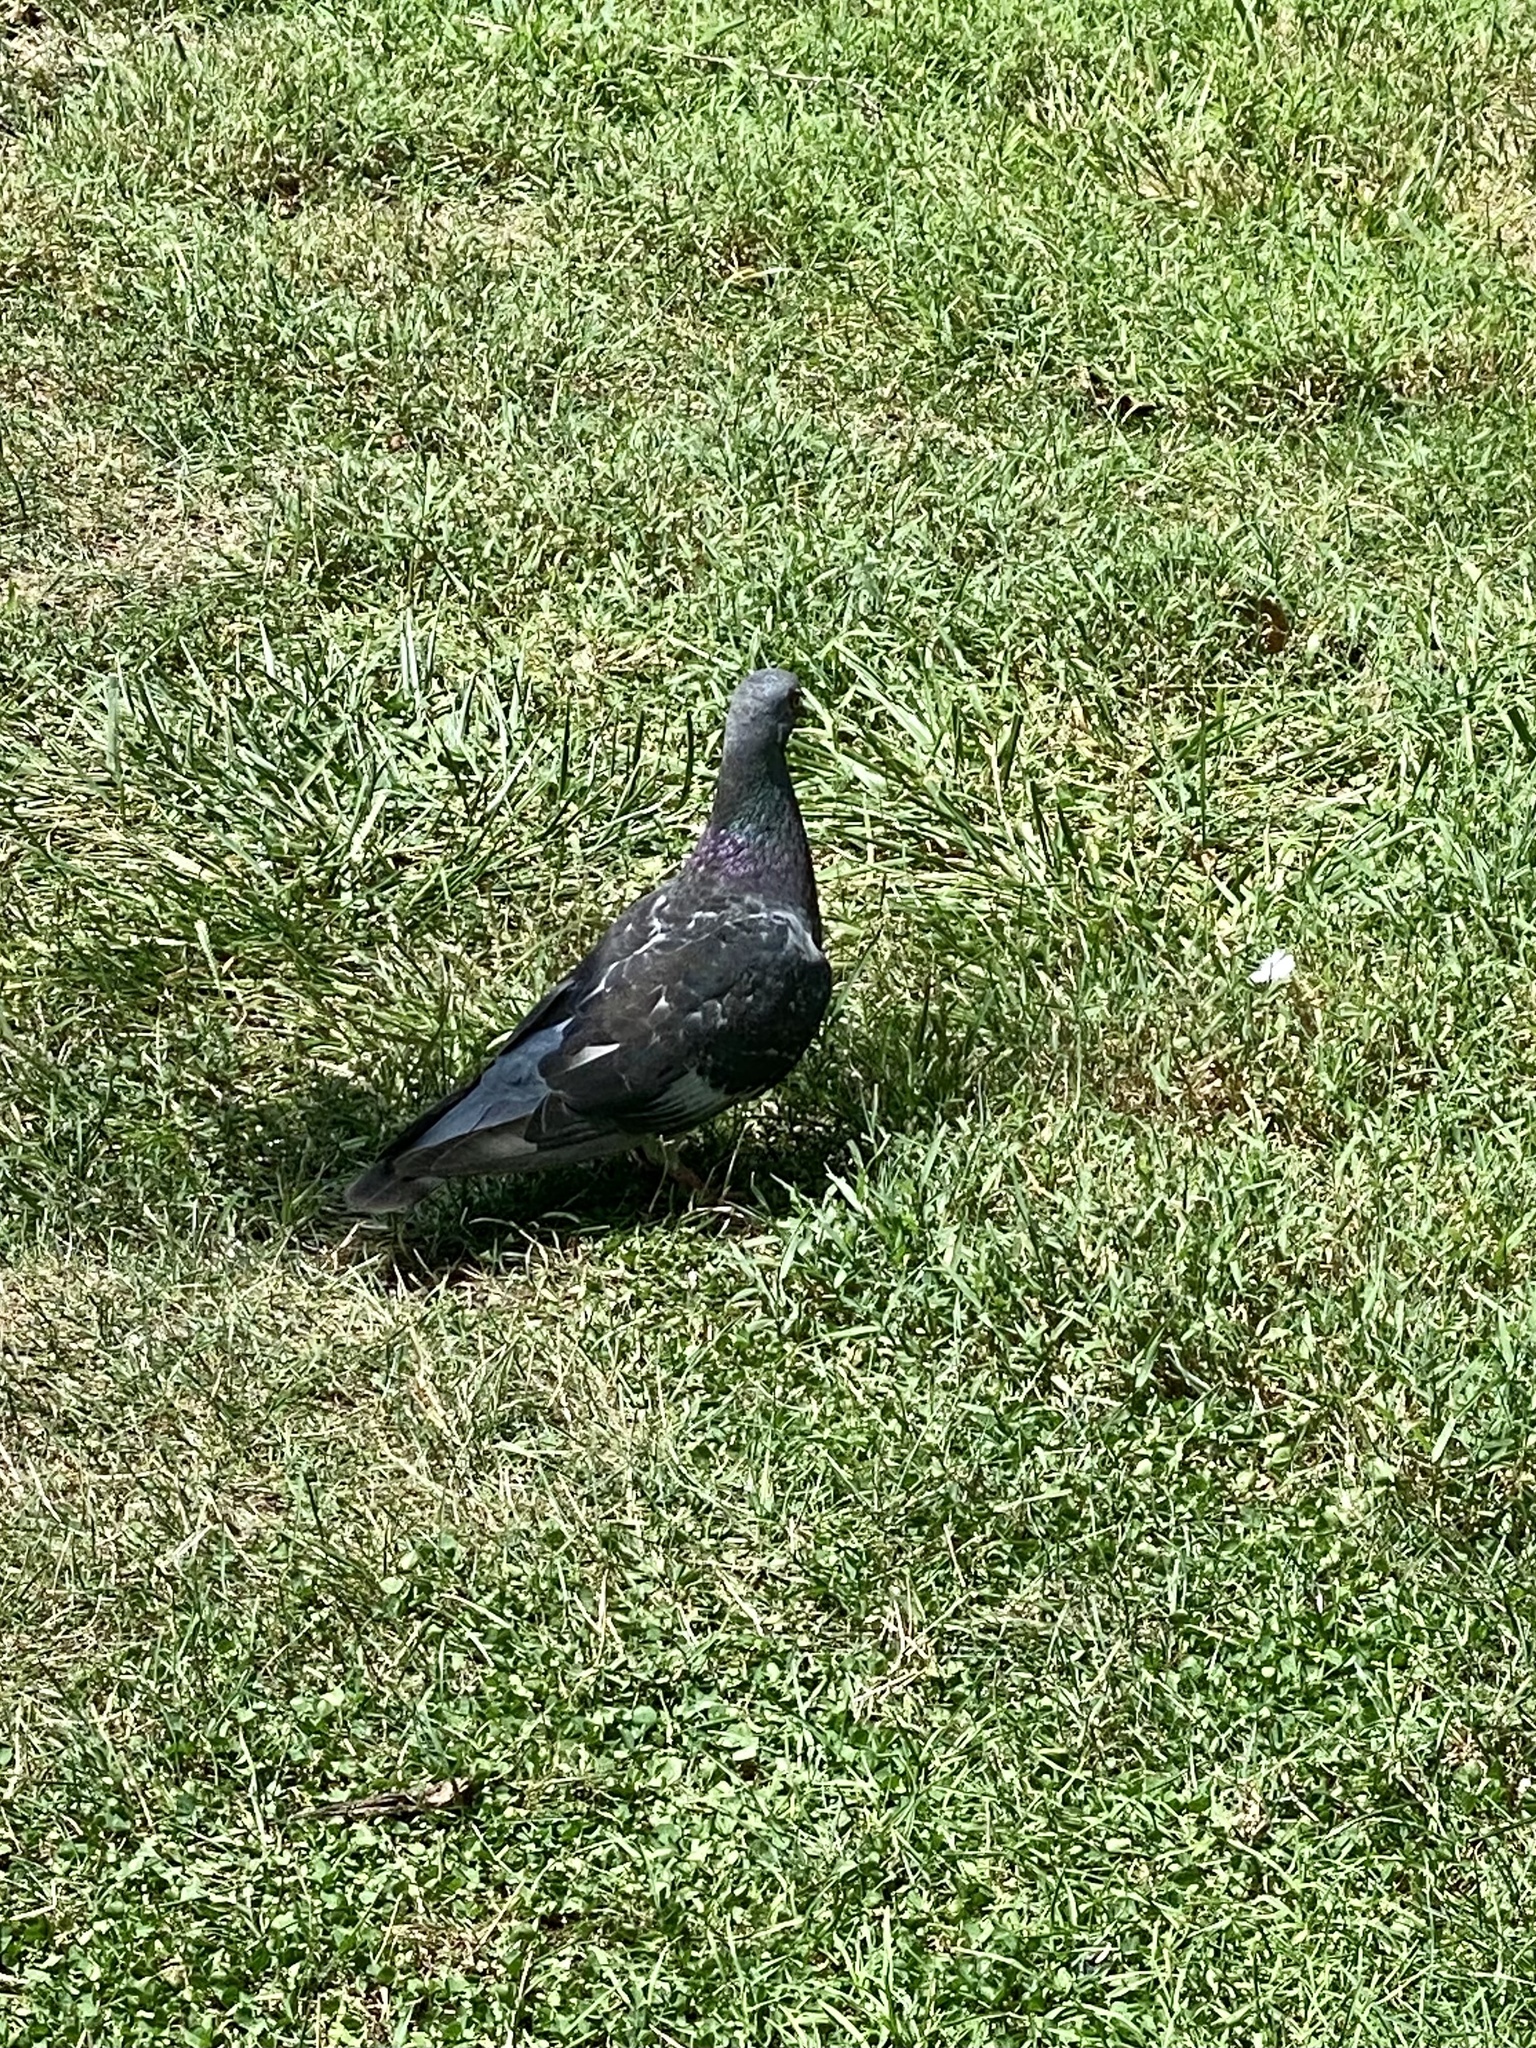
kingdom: Animalia
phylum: Chordata
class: Aves
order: Columbiformes
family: Columbidae
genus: Columba
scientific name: Columba livia
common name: Rock pigeon
